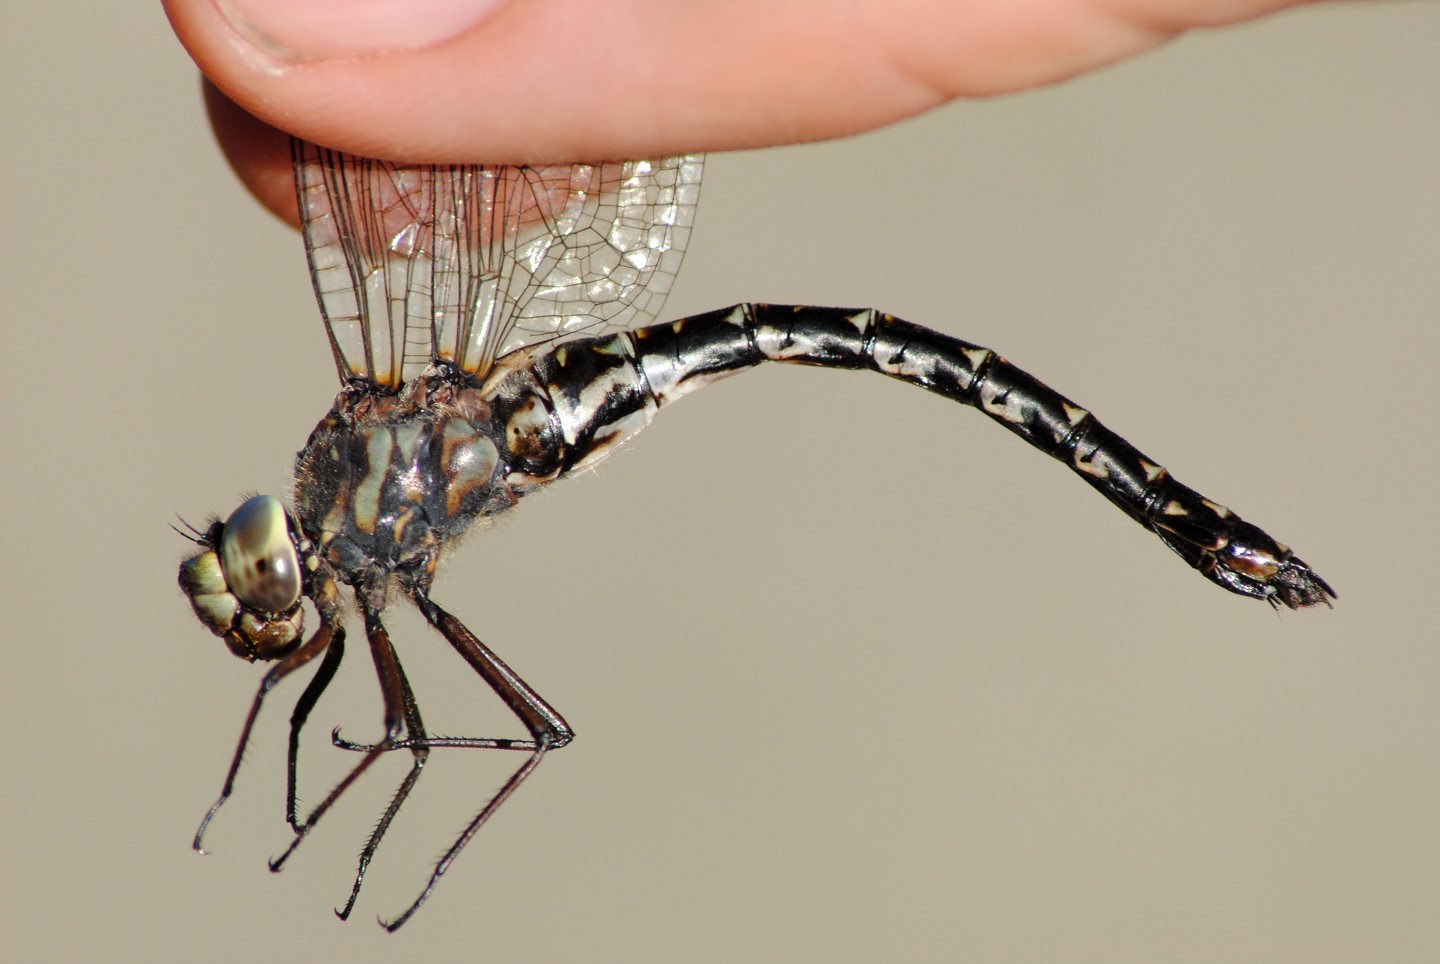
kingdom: Animalia
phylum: Arthropoda
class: Insecta
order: Odonata
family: Aeshnidae
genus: Gomphaeschna
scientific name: Gomphaeschna furcillata
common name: Harlequin darner
